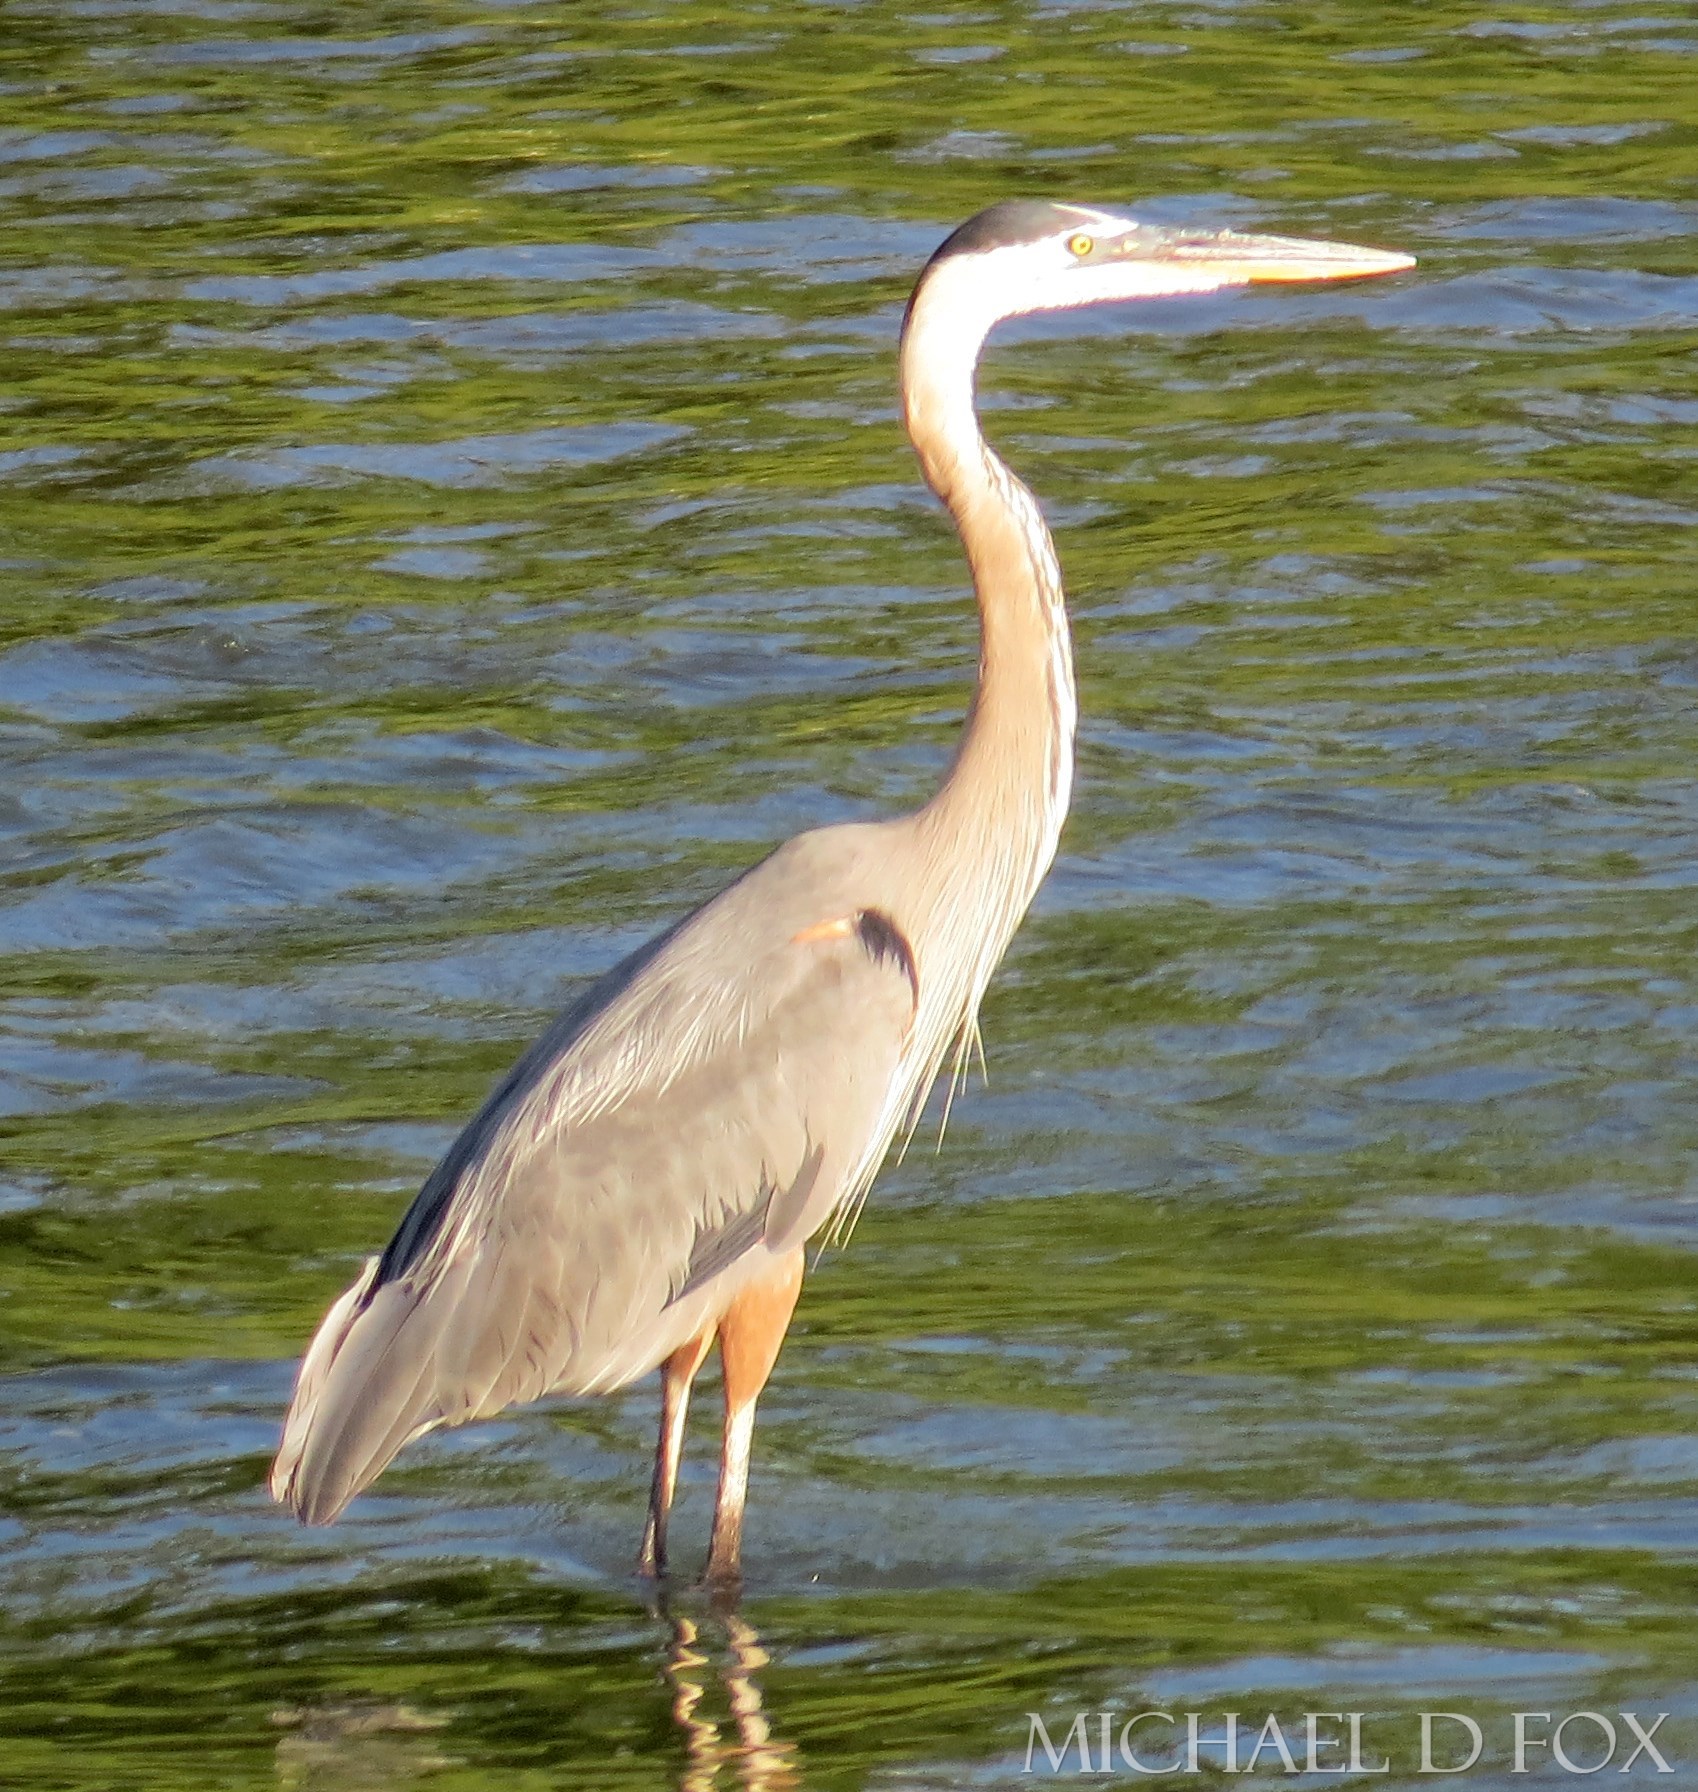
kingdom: Animalia
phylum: Chordata
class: Aves
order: Pelecaniformes
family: Ardeidae
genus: Ardea
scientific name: Ardea herodias
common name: Great blue heron
